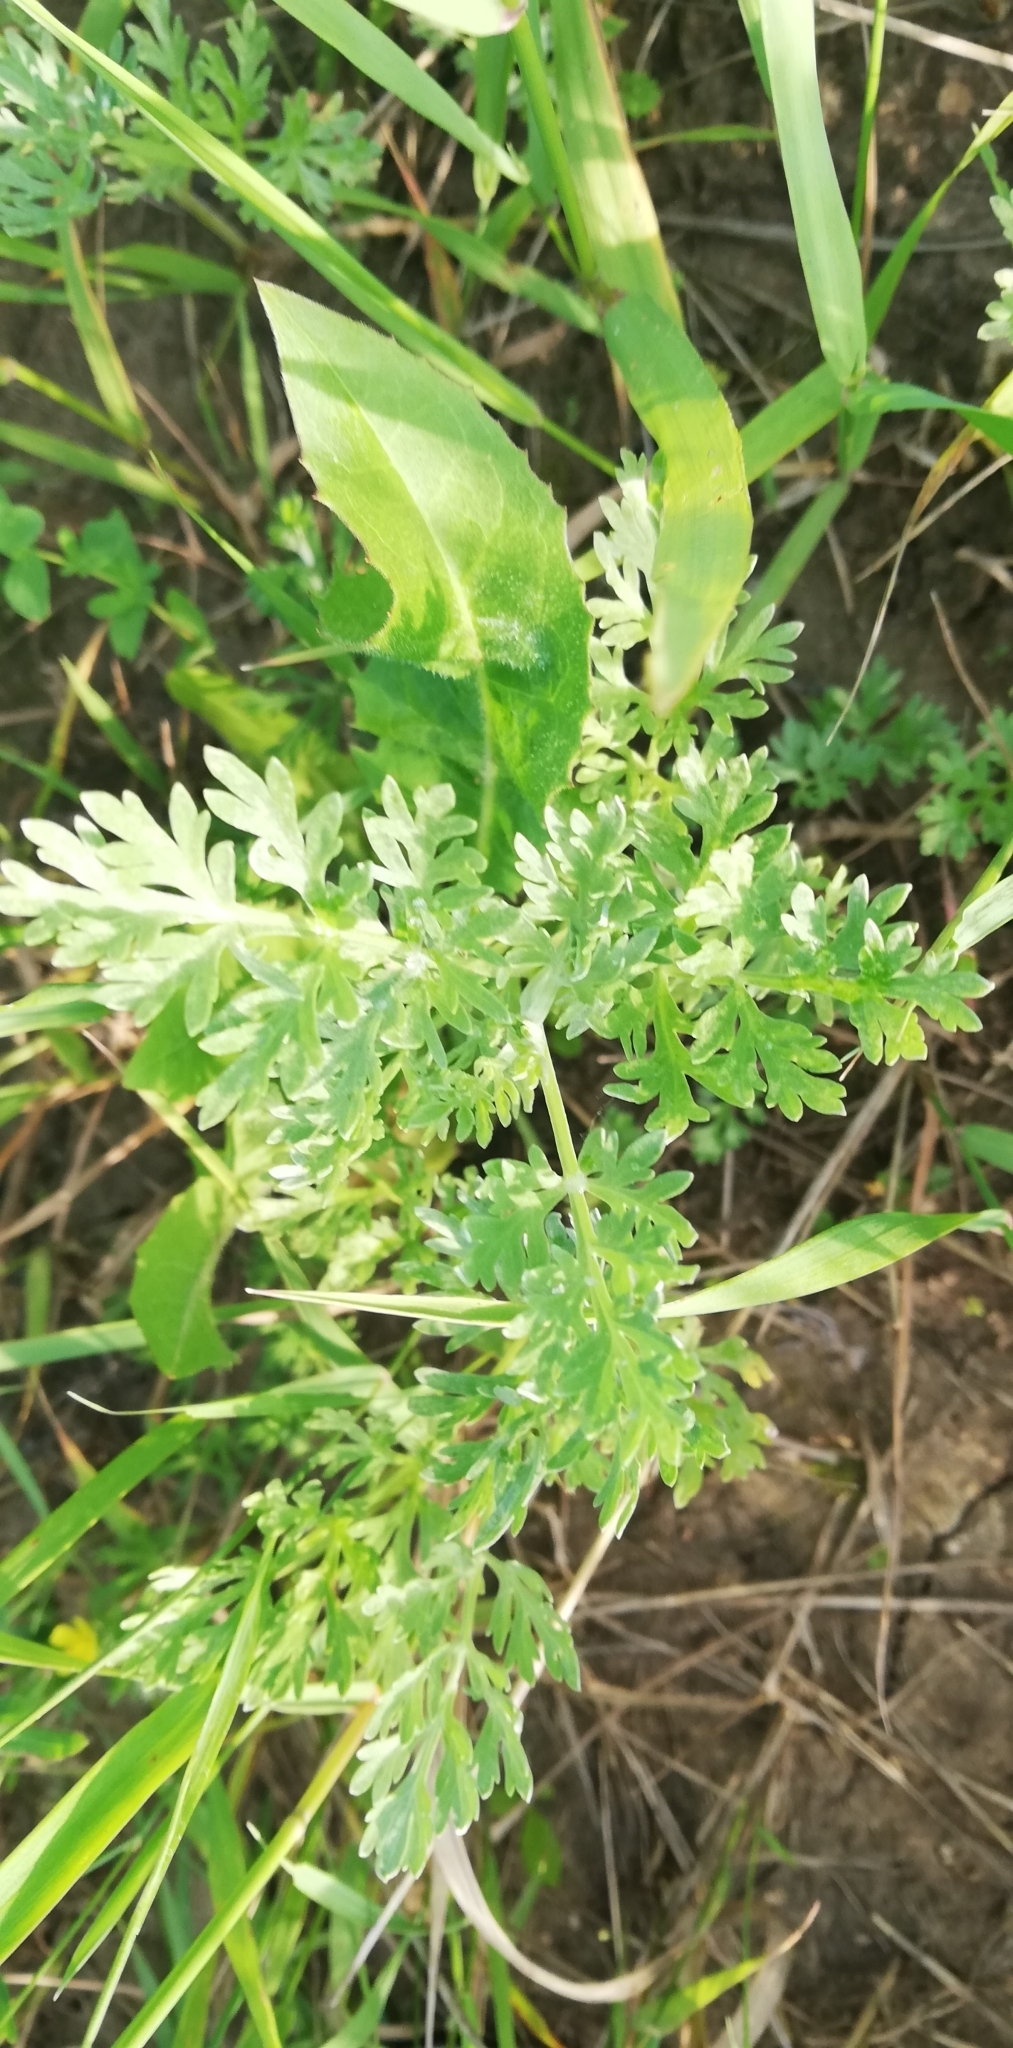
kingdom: Plantae
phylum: Tracheophyta
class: Magnoliopsida
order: Asterales
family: Asteraceae
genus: Artemisia
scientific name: Artemisia absinthium
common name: Wormwood
